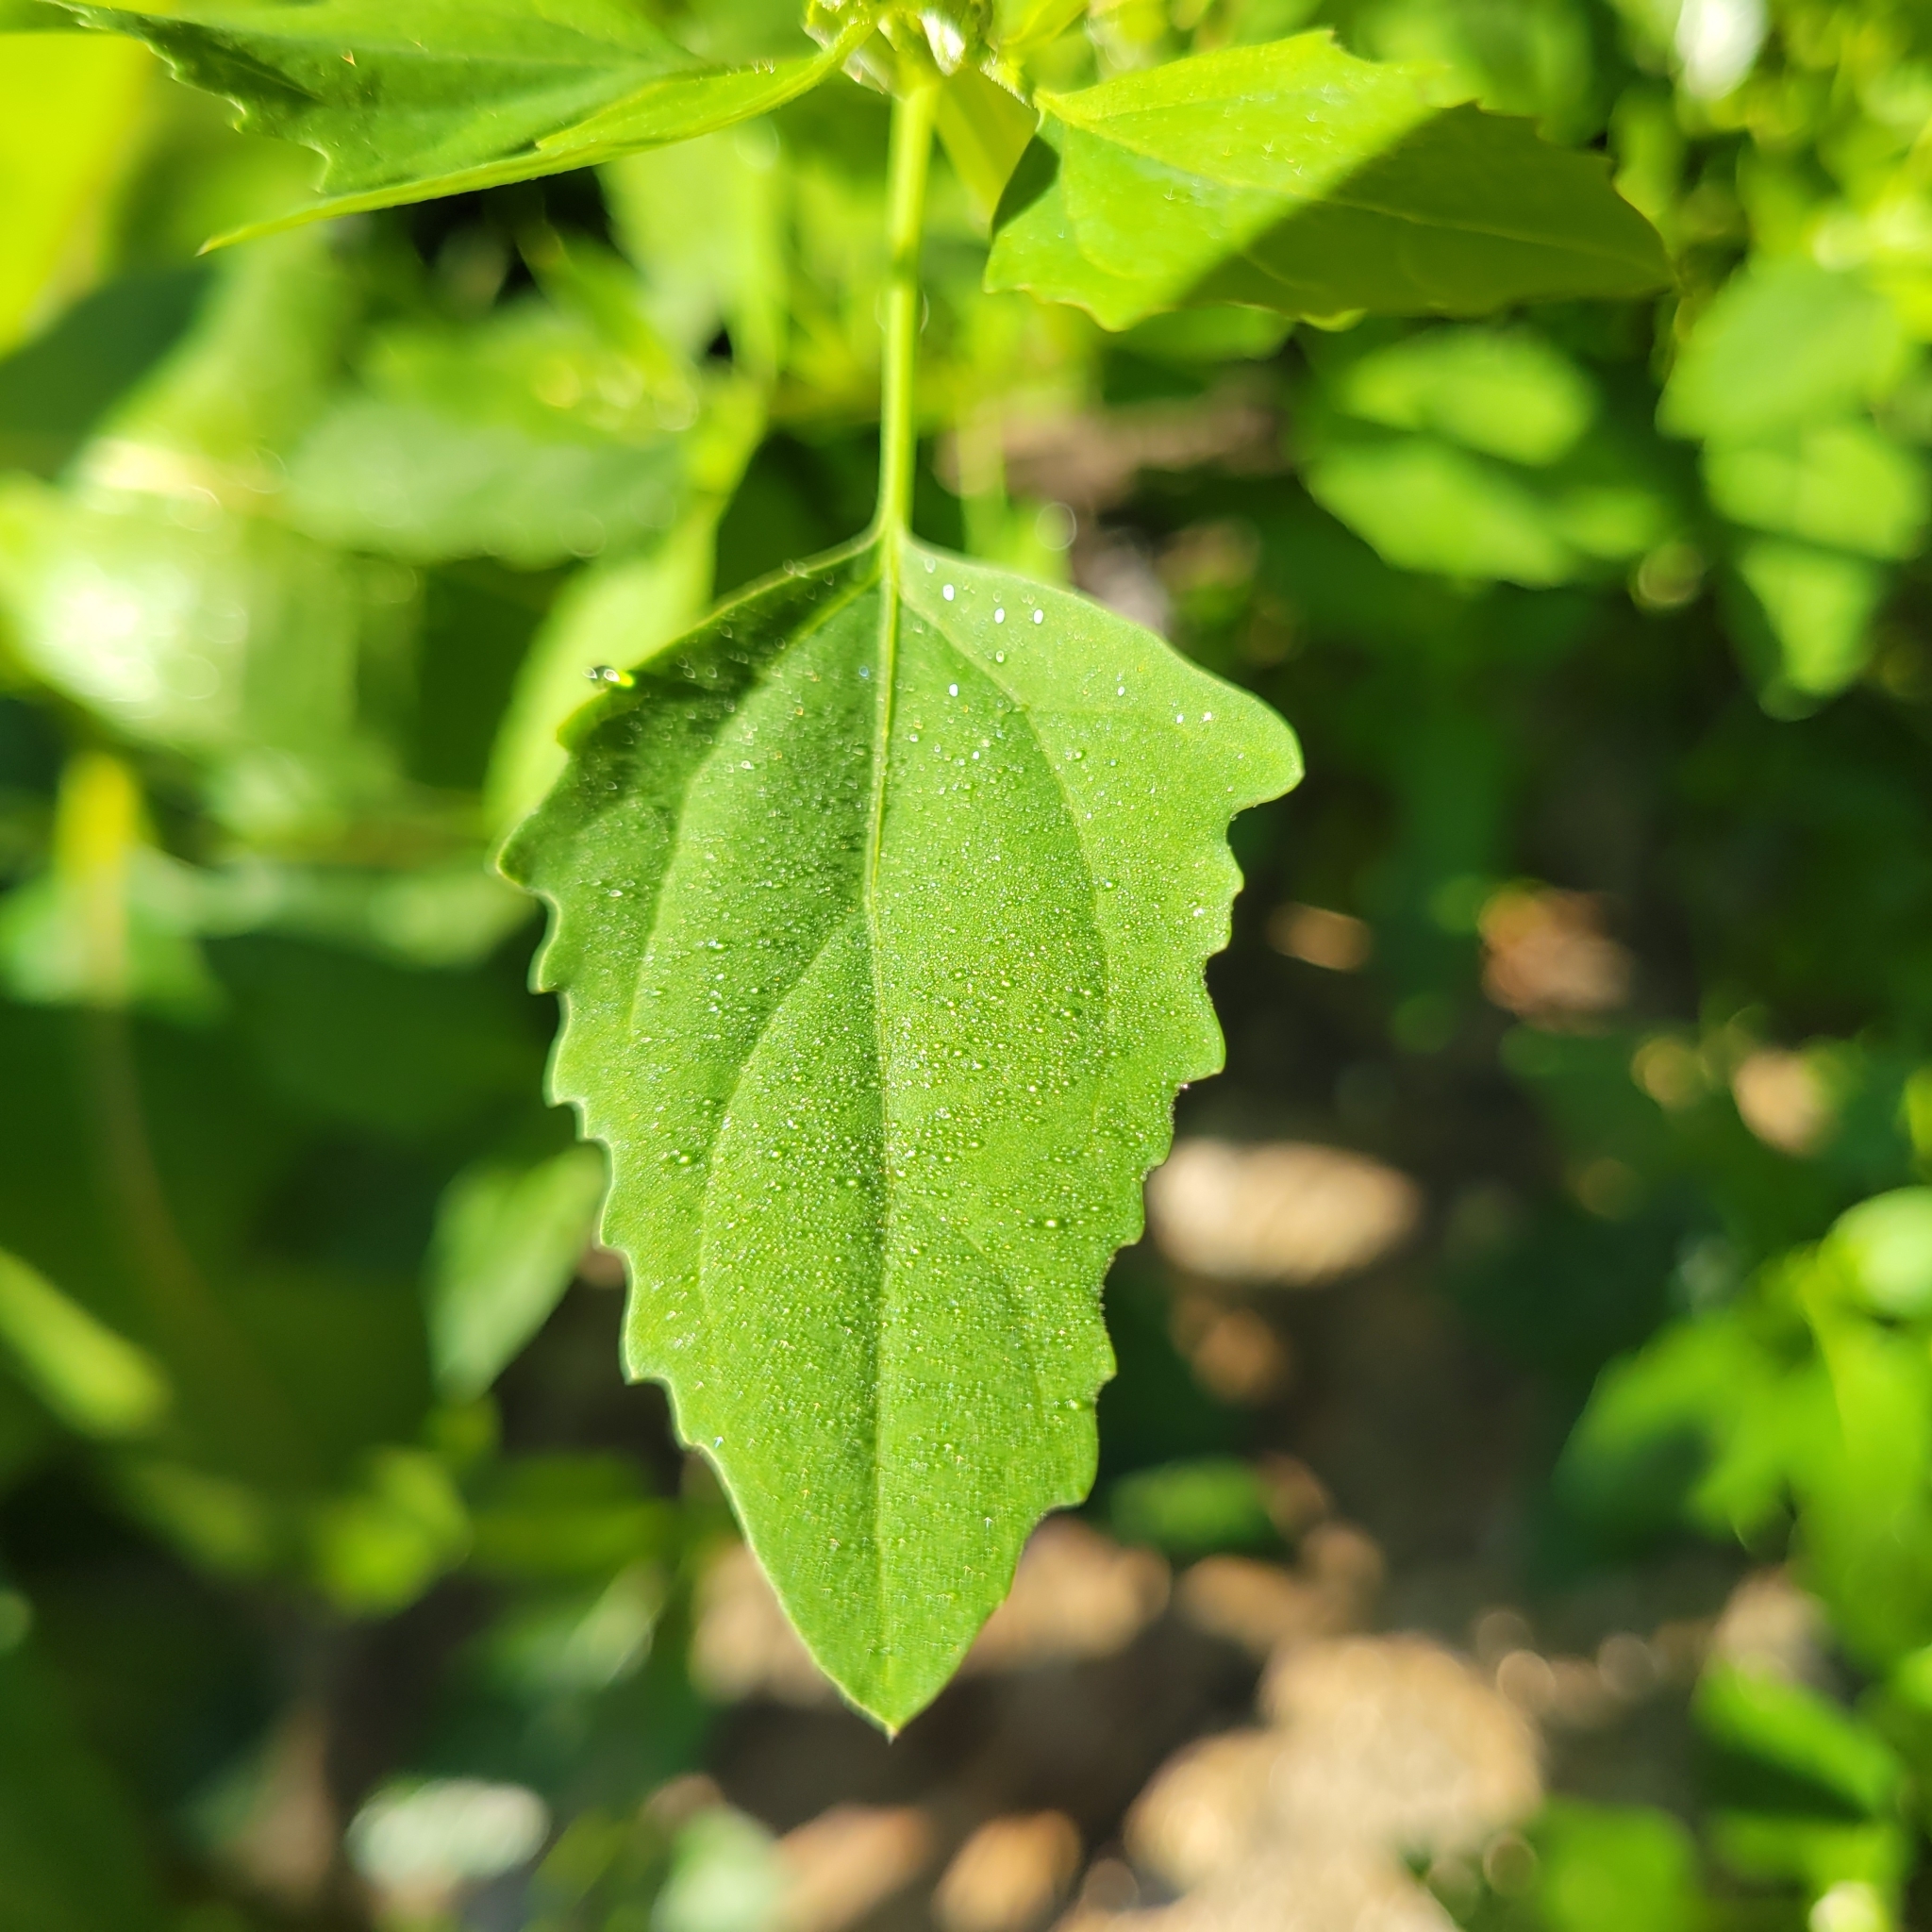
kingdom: Plantae
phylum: Tracheophyta
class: Magnoliopsida
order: Caryophyllales
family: Amaranthaceae
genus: Chenopodium
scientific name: Chenopodium album
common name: Fat-hen
